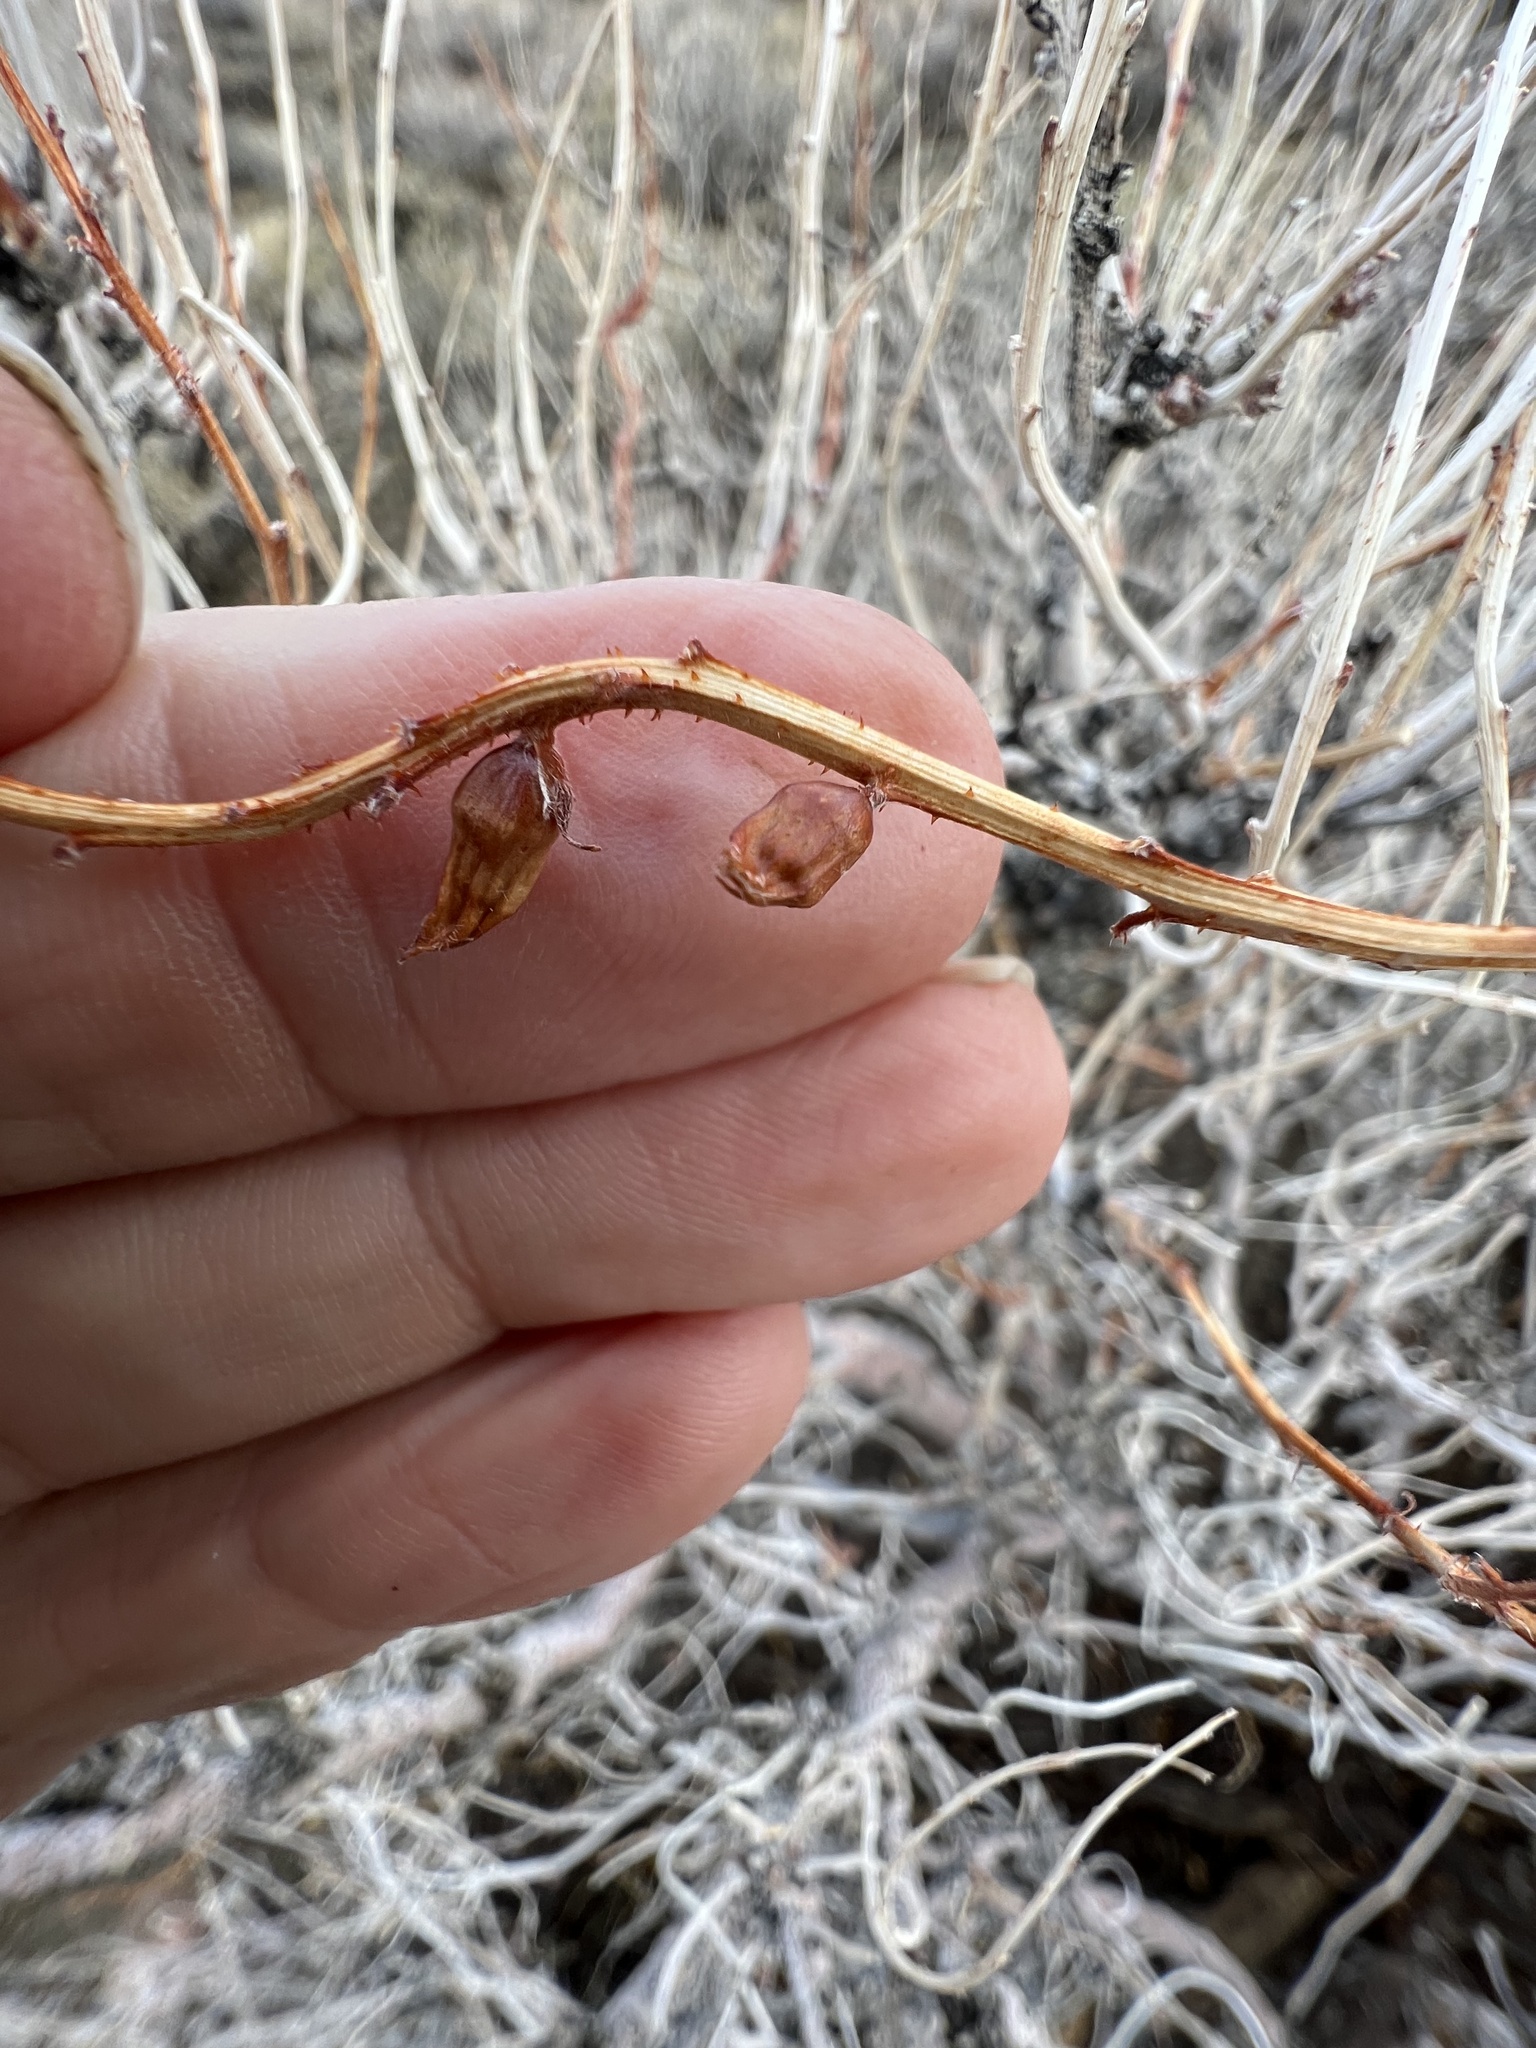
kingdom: Plantae
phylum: Tracheophyta
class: Magnoliopsida
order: Fabales
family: Fabaceae
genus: Psorothamnus
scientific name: Psorothamnus arborescens
